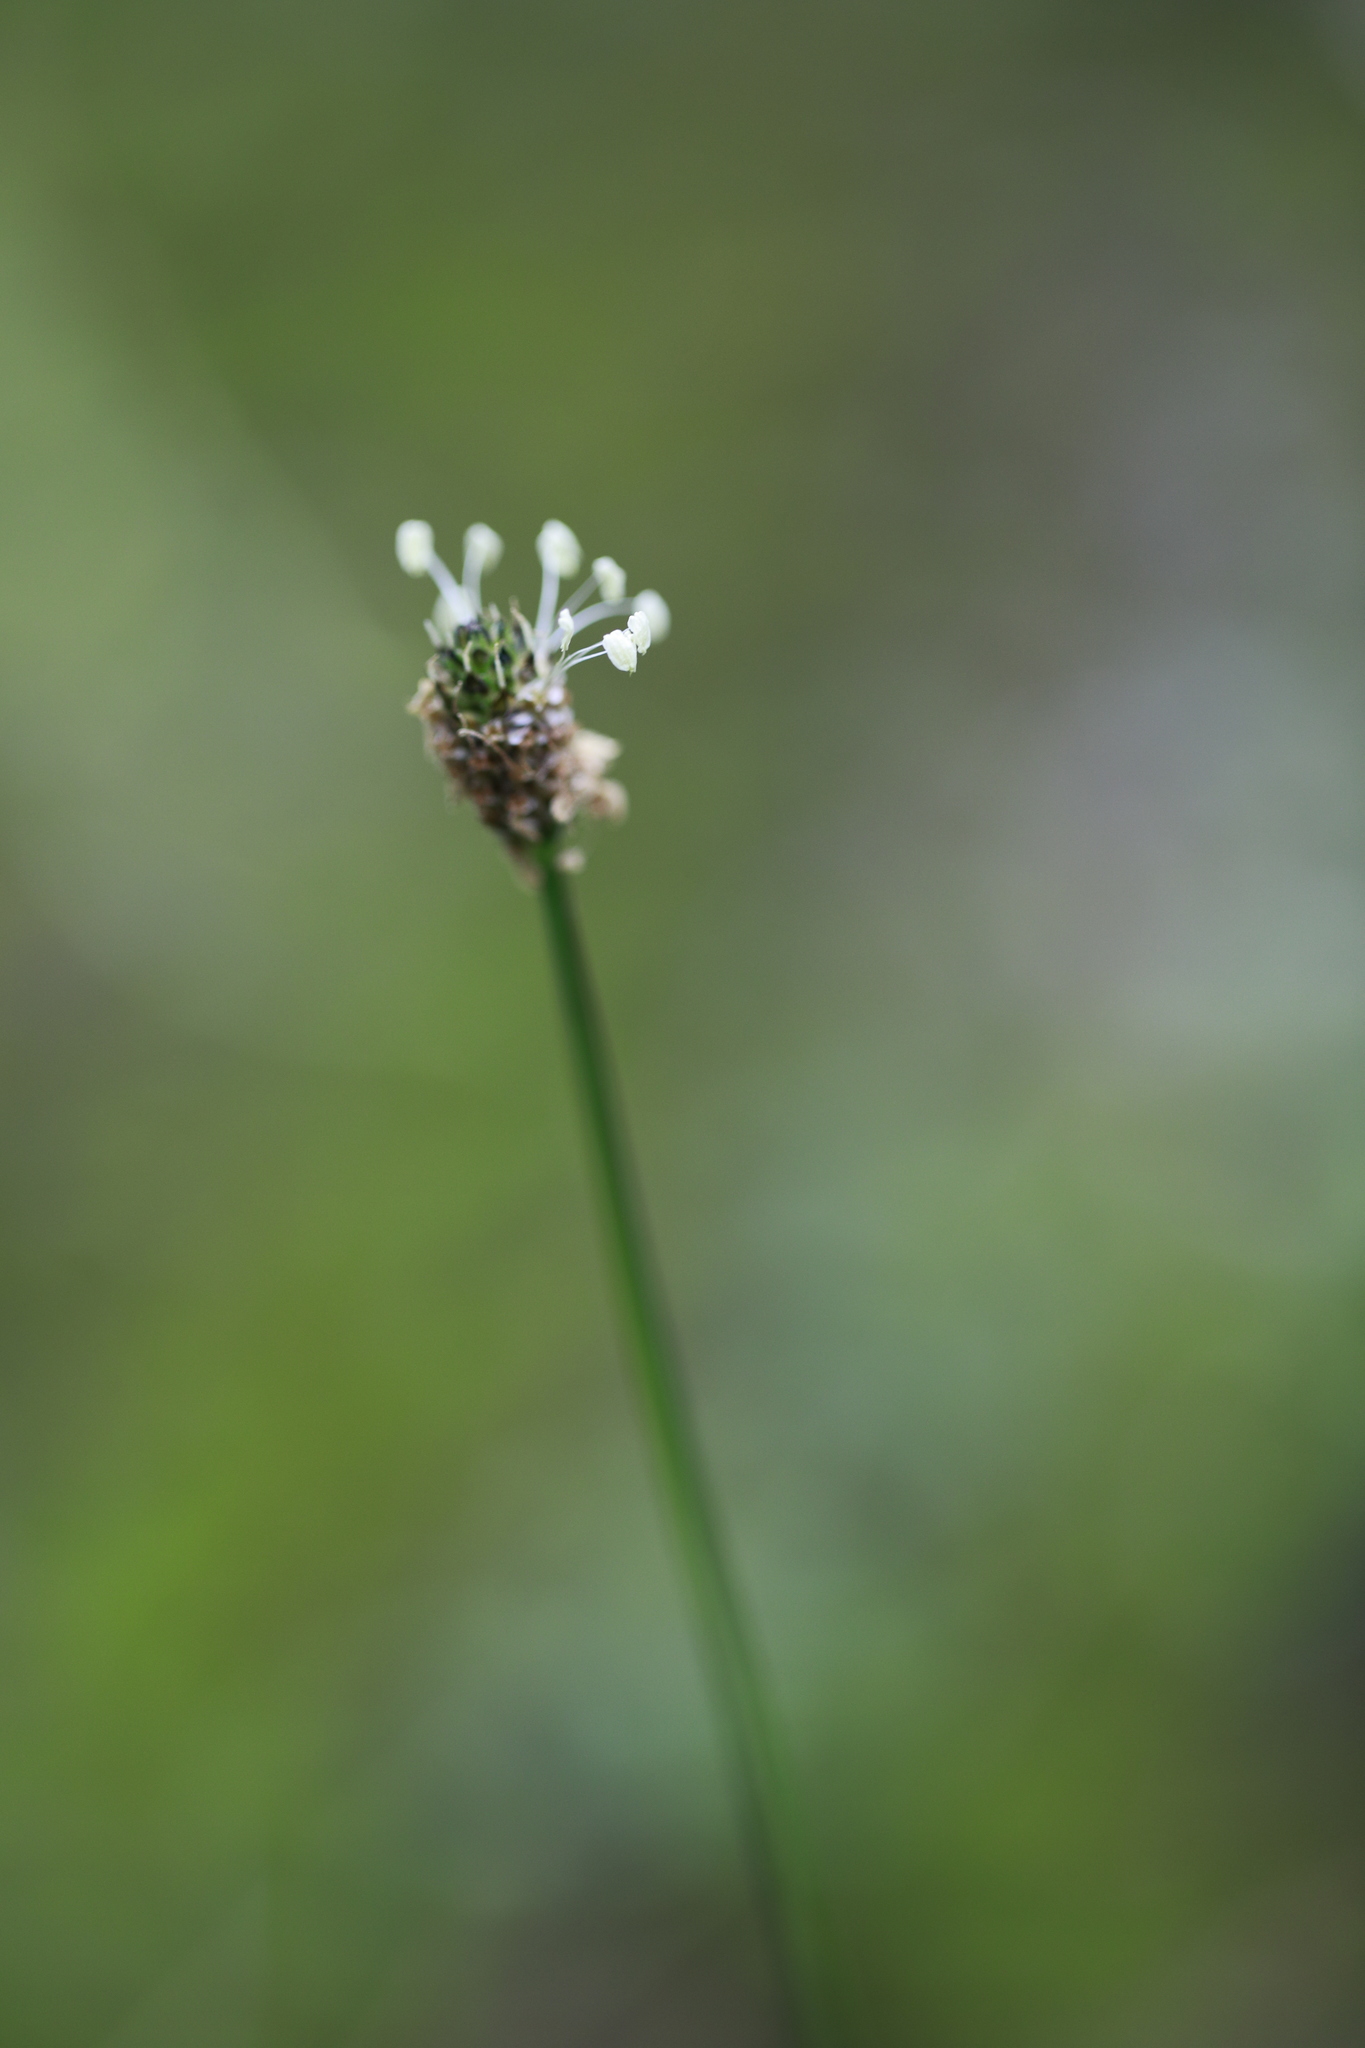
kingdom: Plantae
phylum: Tracheophyta
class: Magnoliopsida
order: Lamiales
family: Plantaginaceae
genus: Plantago
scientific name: Plantago lanceolata
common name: Ribwort plantain
